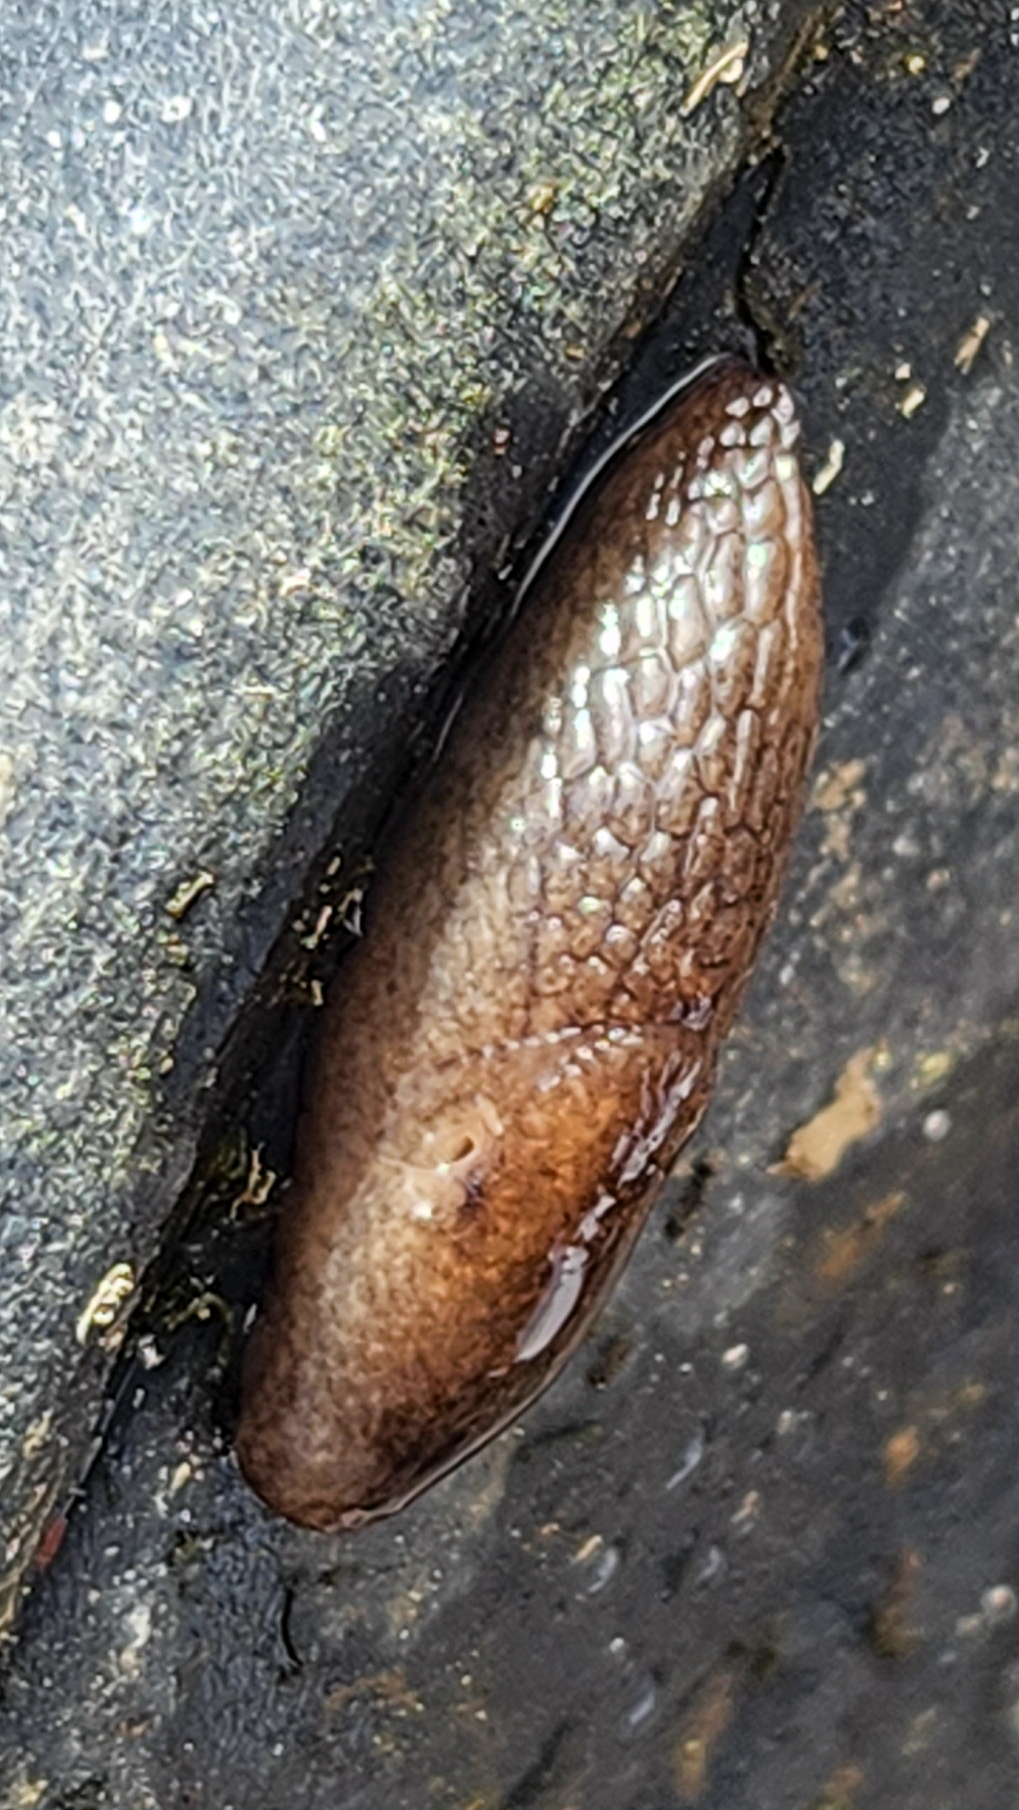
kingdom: Animalia
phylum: Mollusca
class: Gastropoda
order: Stylommatophora
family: Agriolimacidae
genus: Deroceras
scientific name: Deroceras reticulatum
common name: Gray field slug
